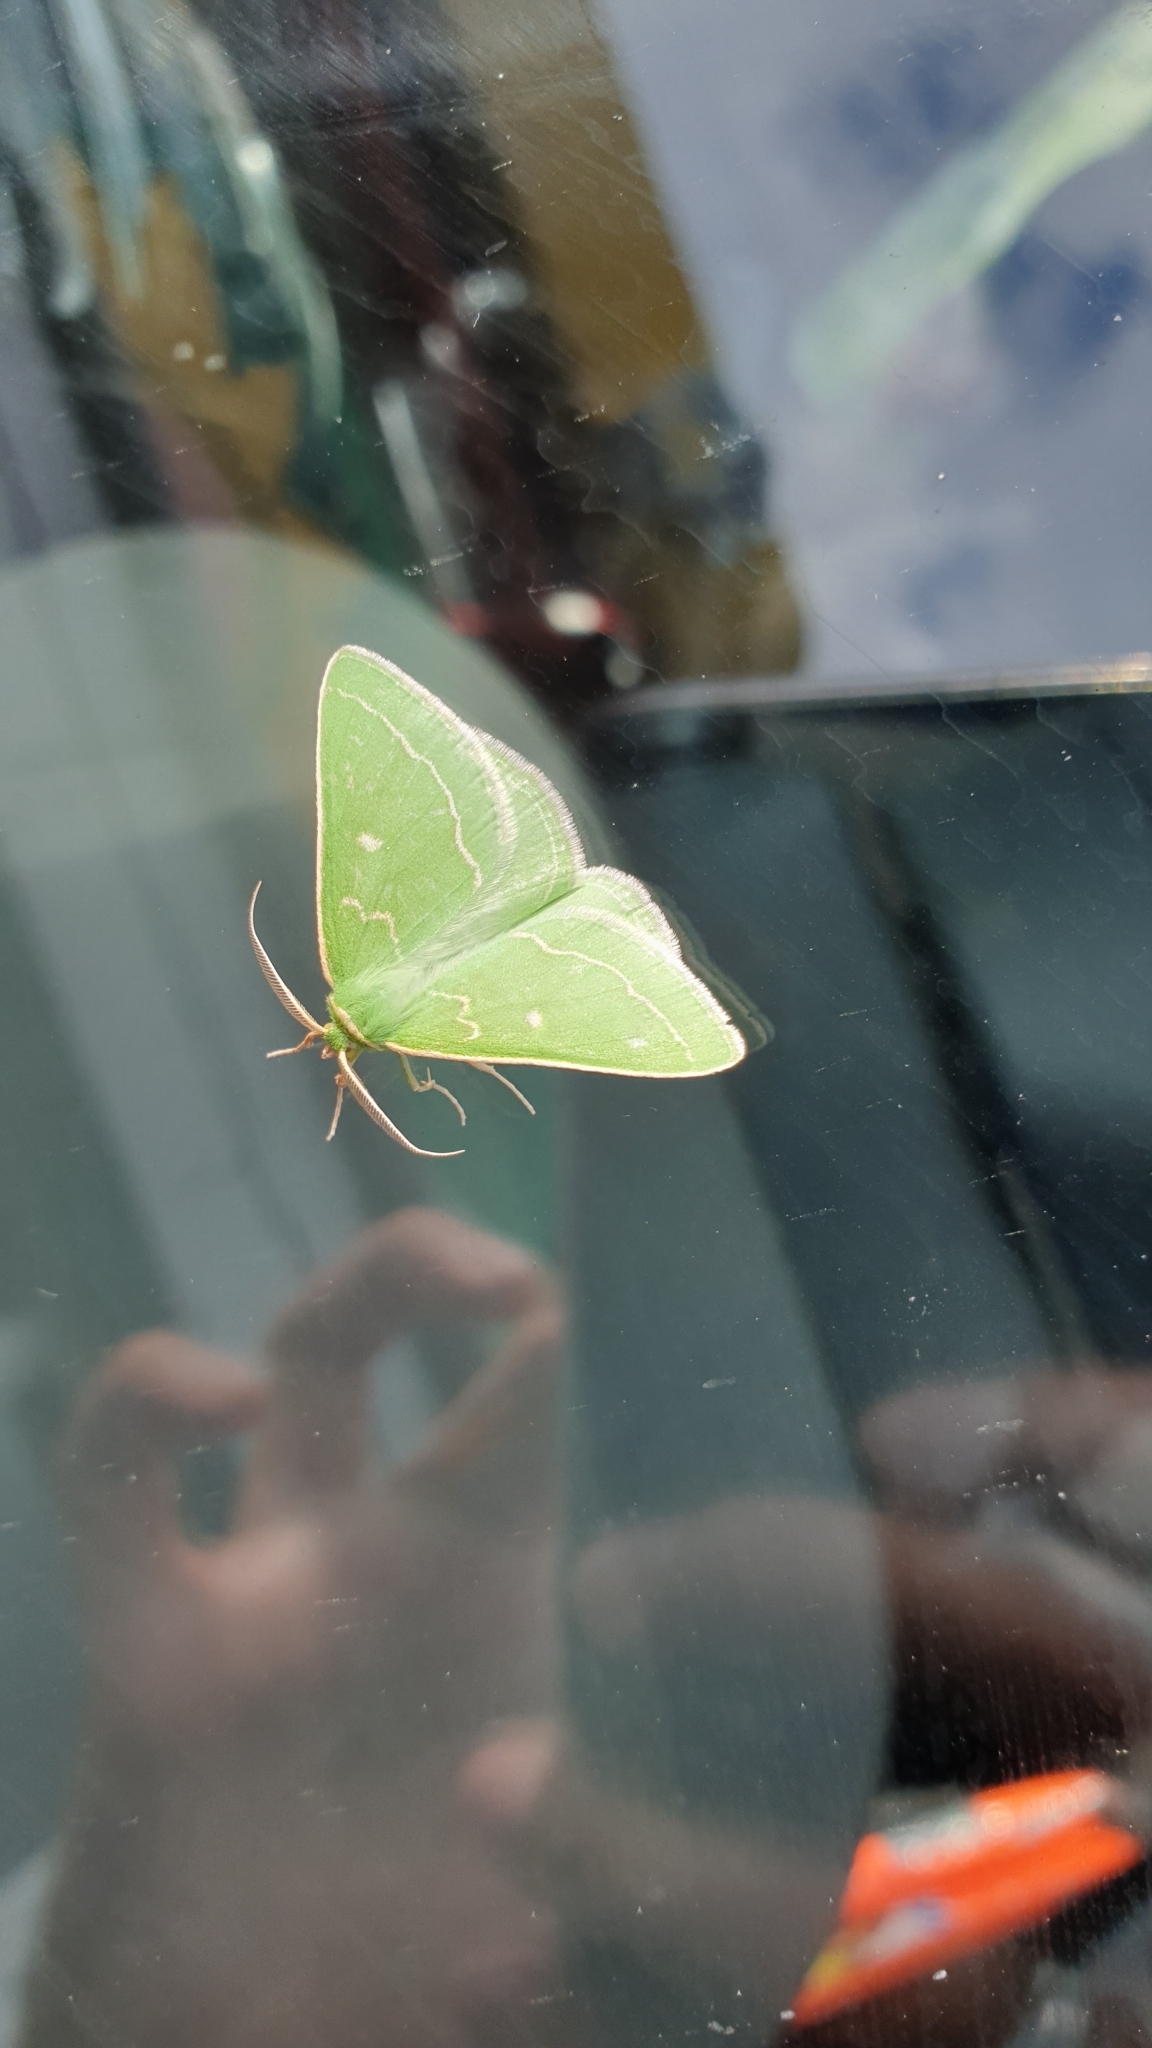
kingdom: Animalia
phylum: Arthropoda
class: Insecta
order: Lepidoptera
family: Geometridae
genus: Thetidia
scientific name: Thetidia smaragdaria
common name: Essex emerald
